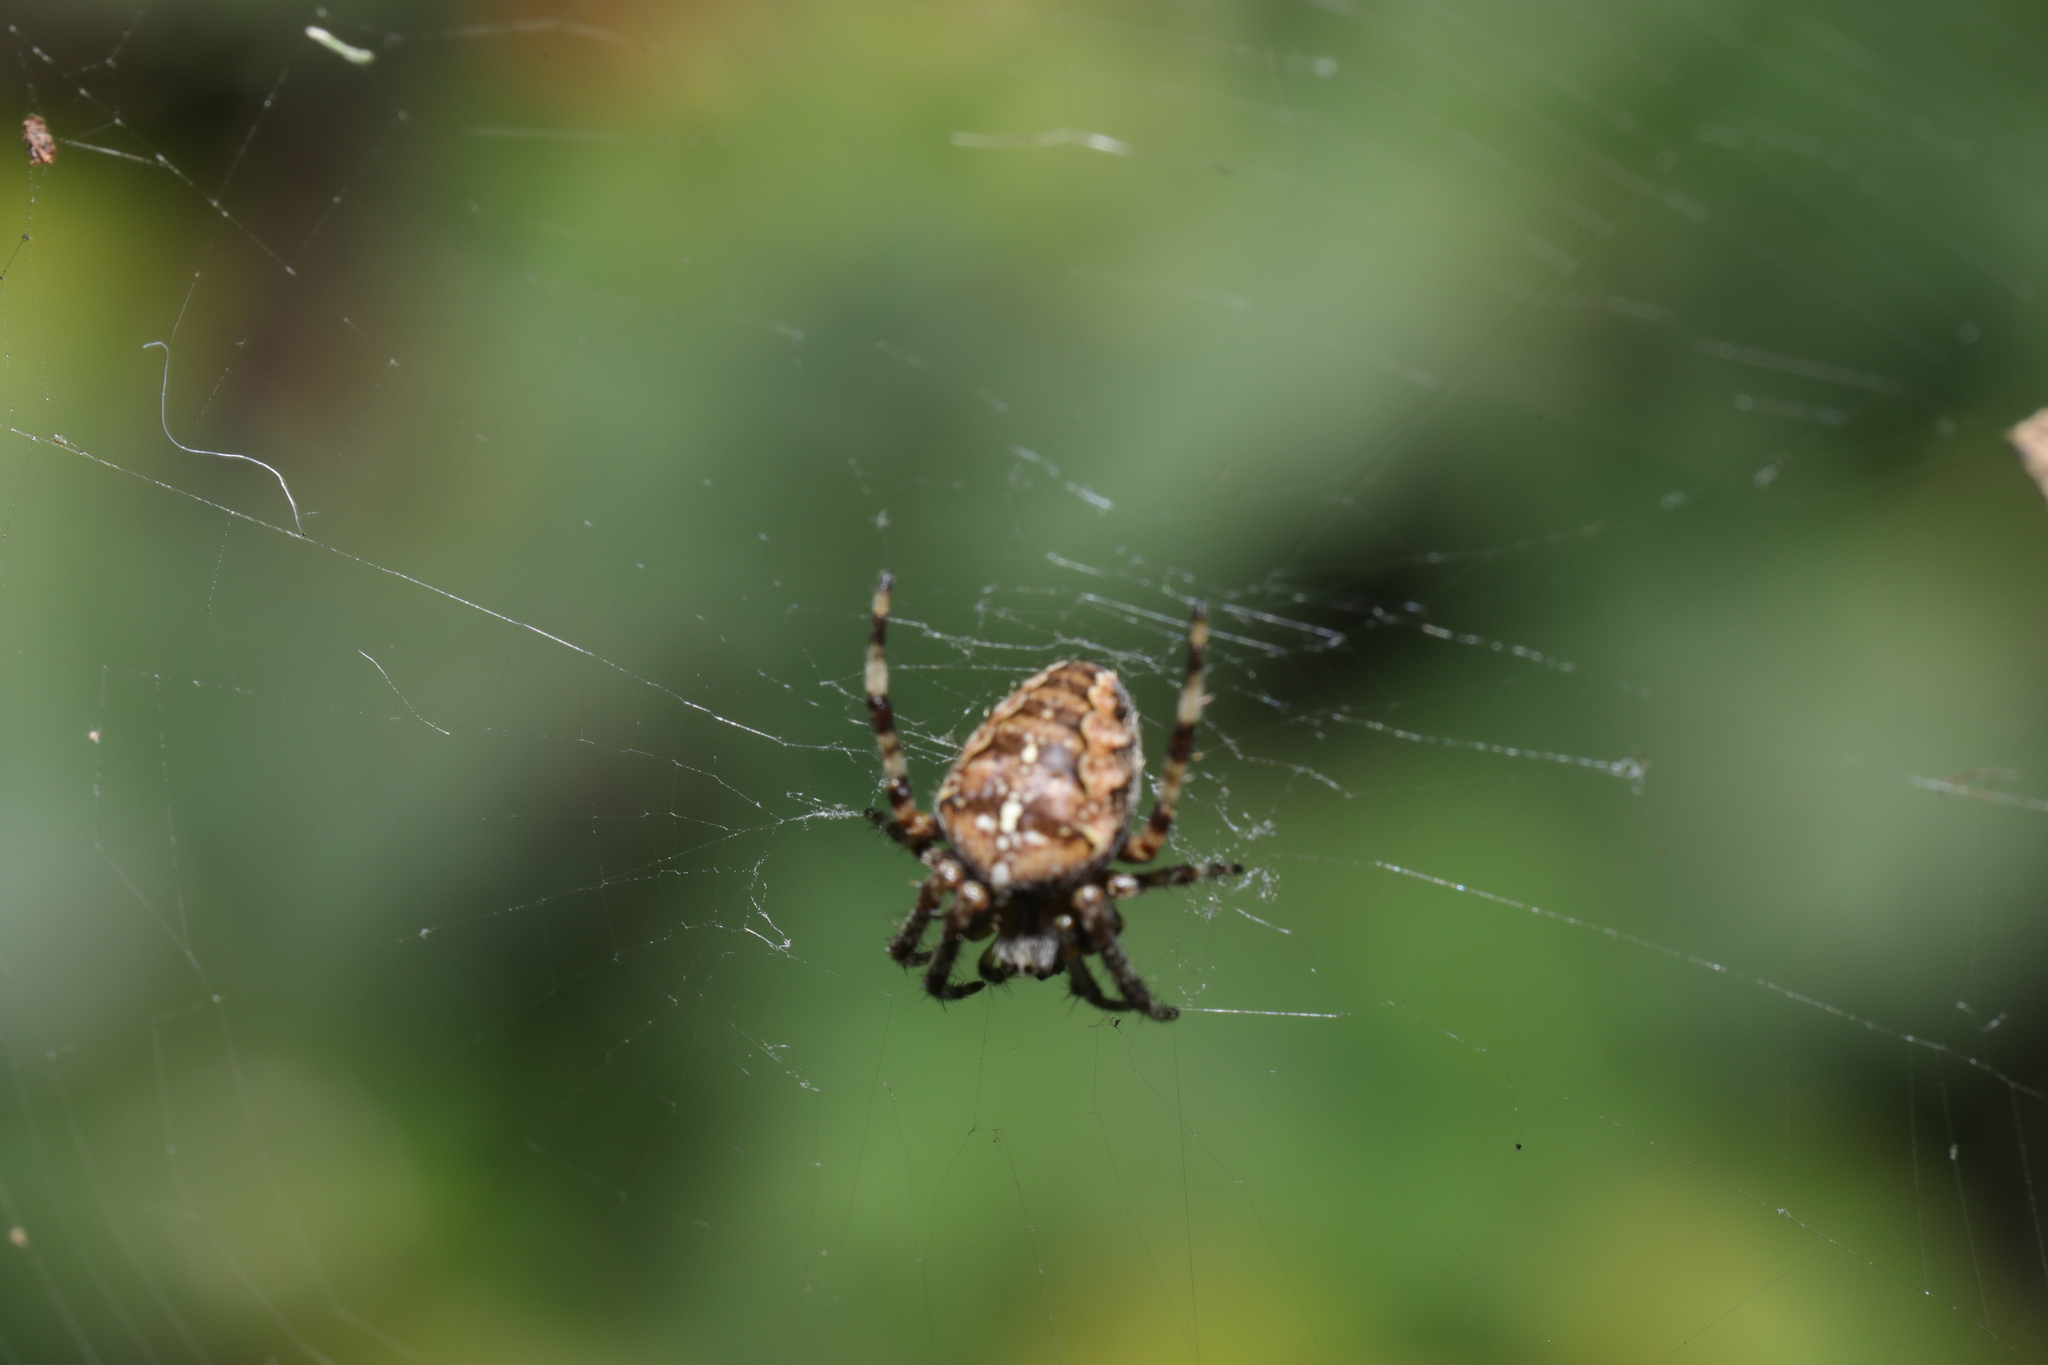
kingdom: Animalia
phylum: Arthropoda
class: Arachnida
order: Araneae
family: Araneidae
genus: Araneus
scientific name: Araneus diadematus
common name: Cross orbweaver
